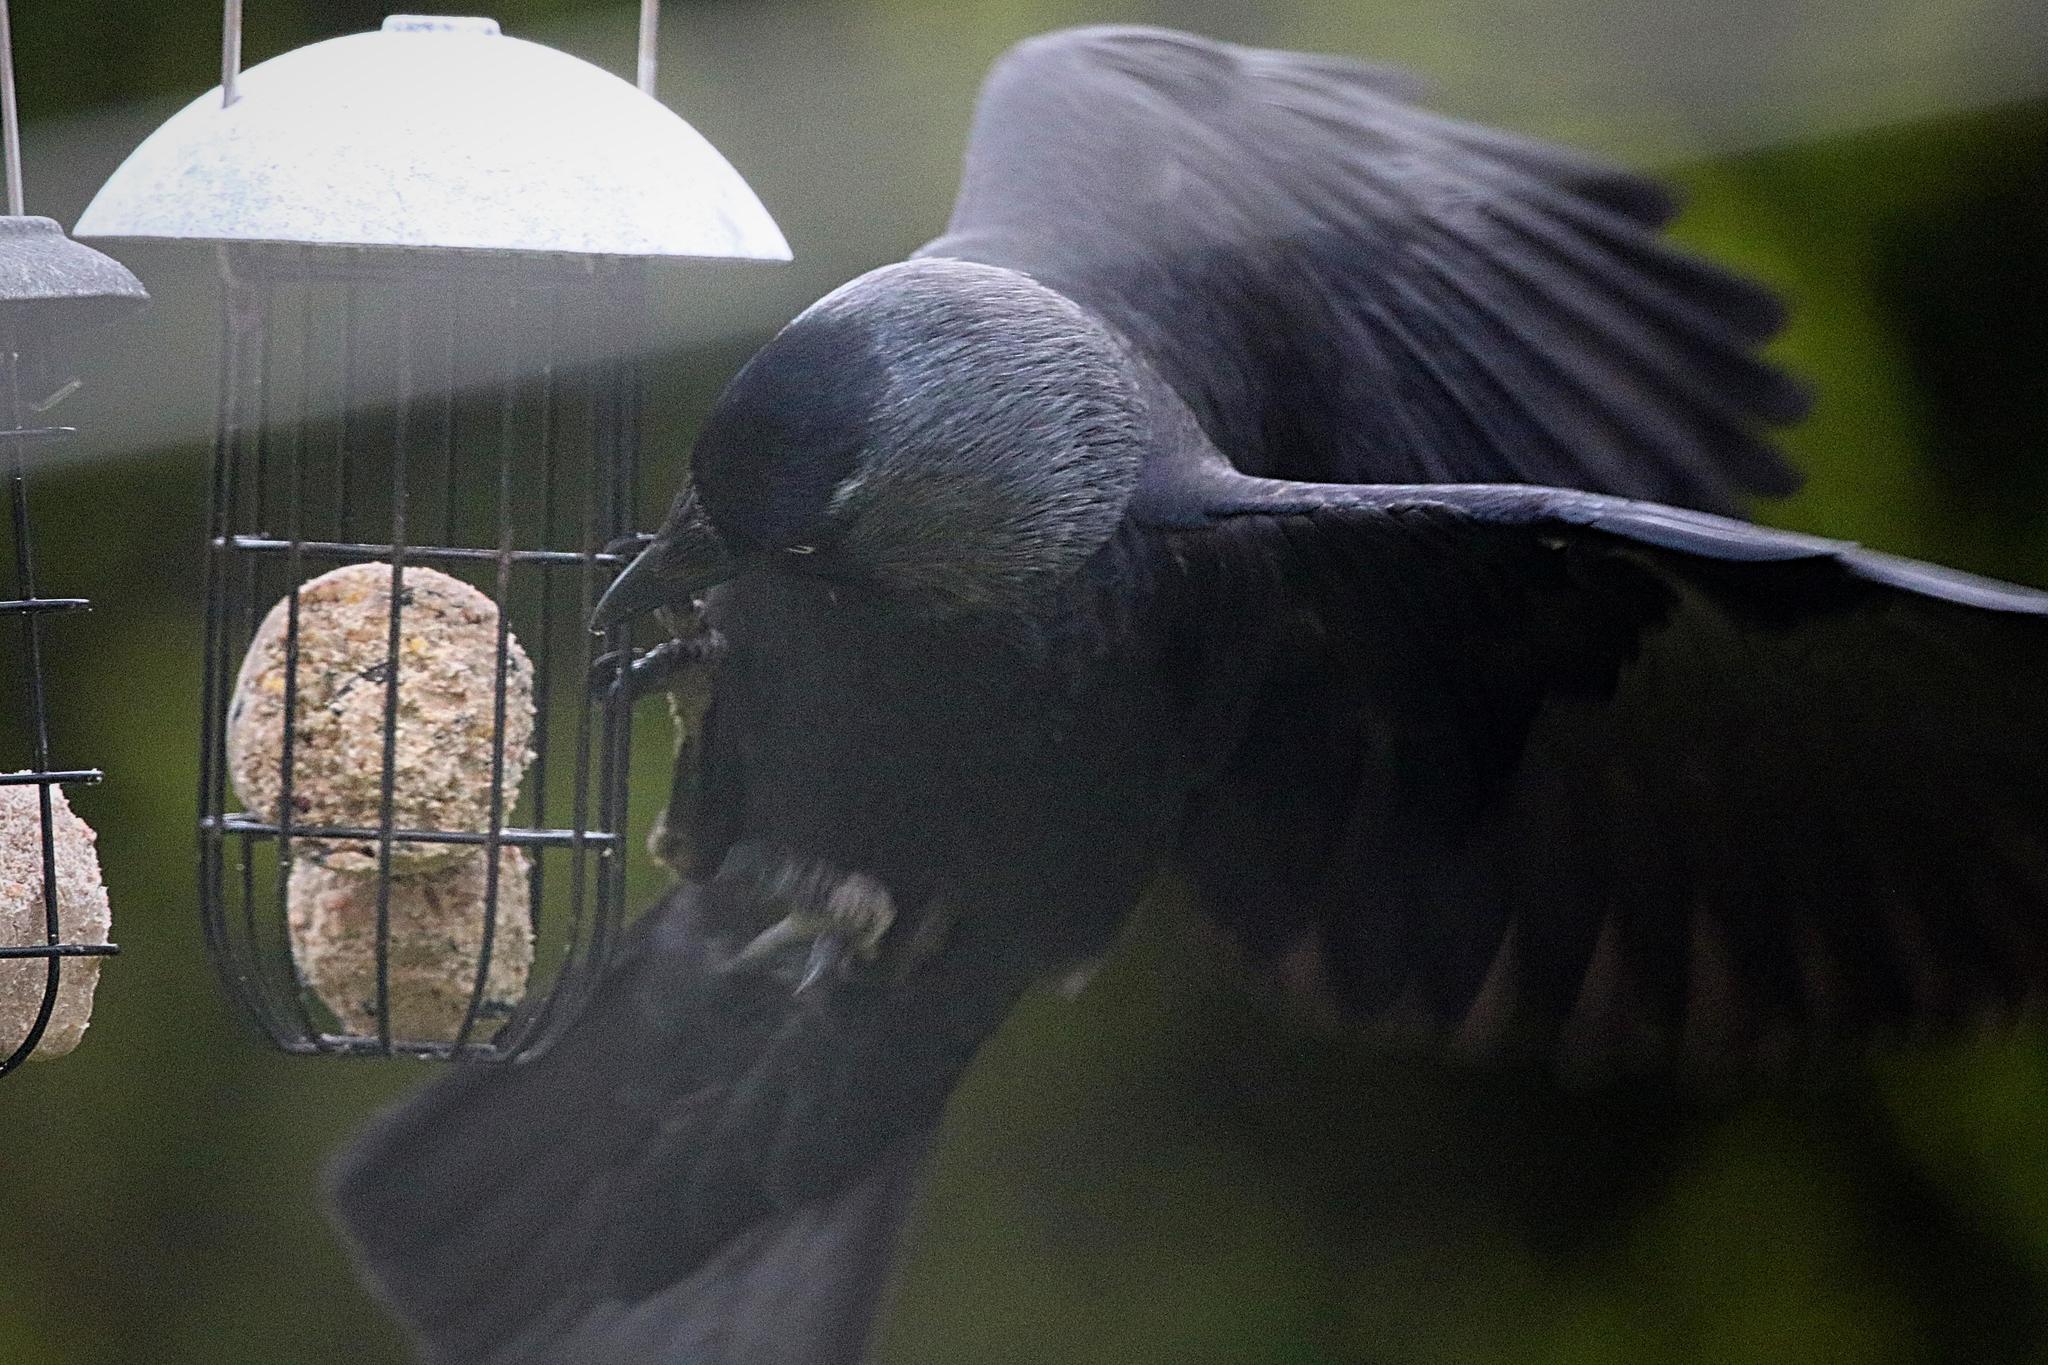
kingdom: Animalia
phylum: Chordata
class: Aves
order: Passeriformes
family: Corvidae
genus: Coloeus
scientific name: Coloeus monedula
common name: Western jackdaw
